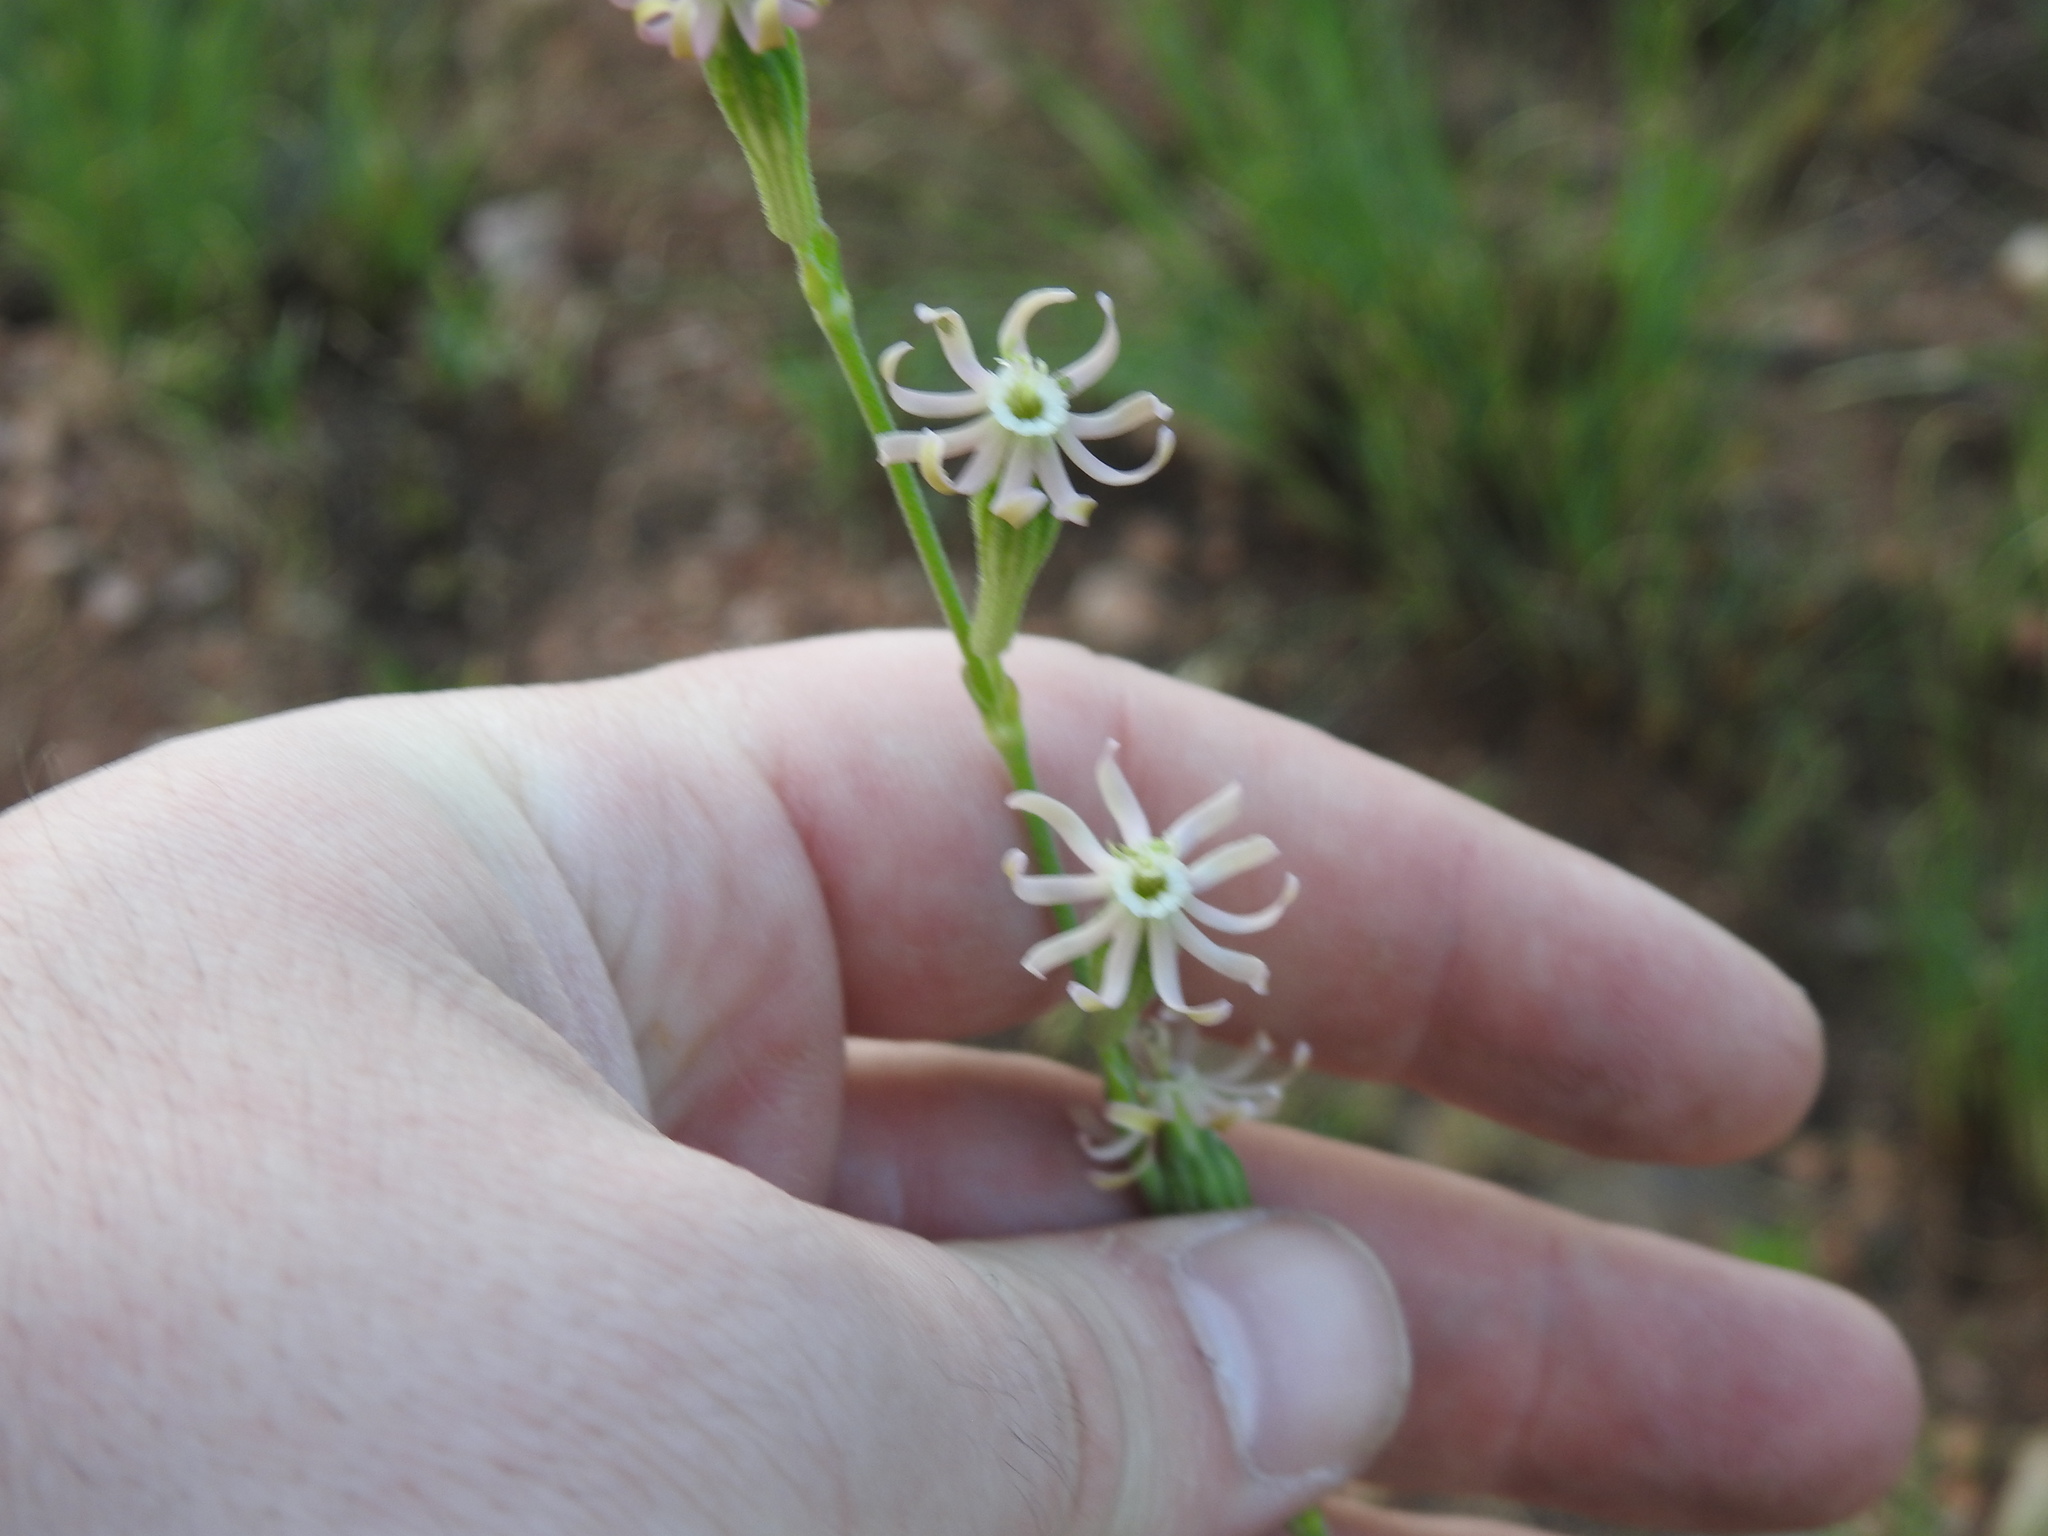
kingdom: Plantae
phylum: Tracheophyta
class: Magnoliopsida
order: Caryophyllales
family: Caryophyllaceae
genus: Silene
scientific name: Silene burchellii
